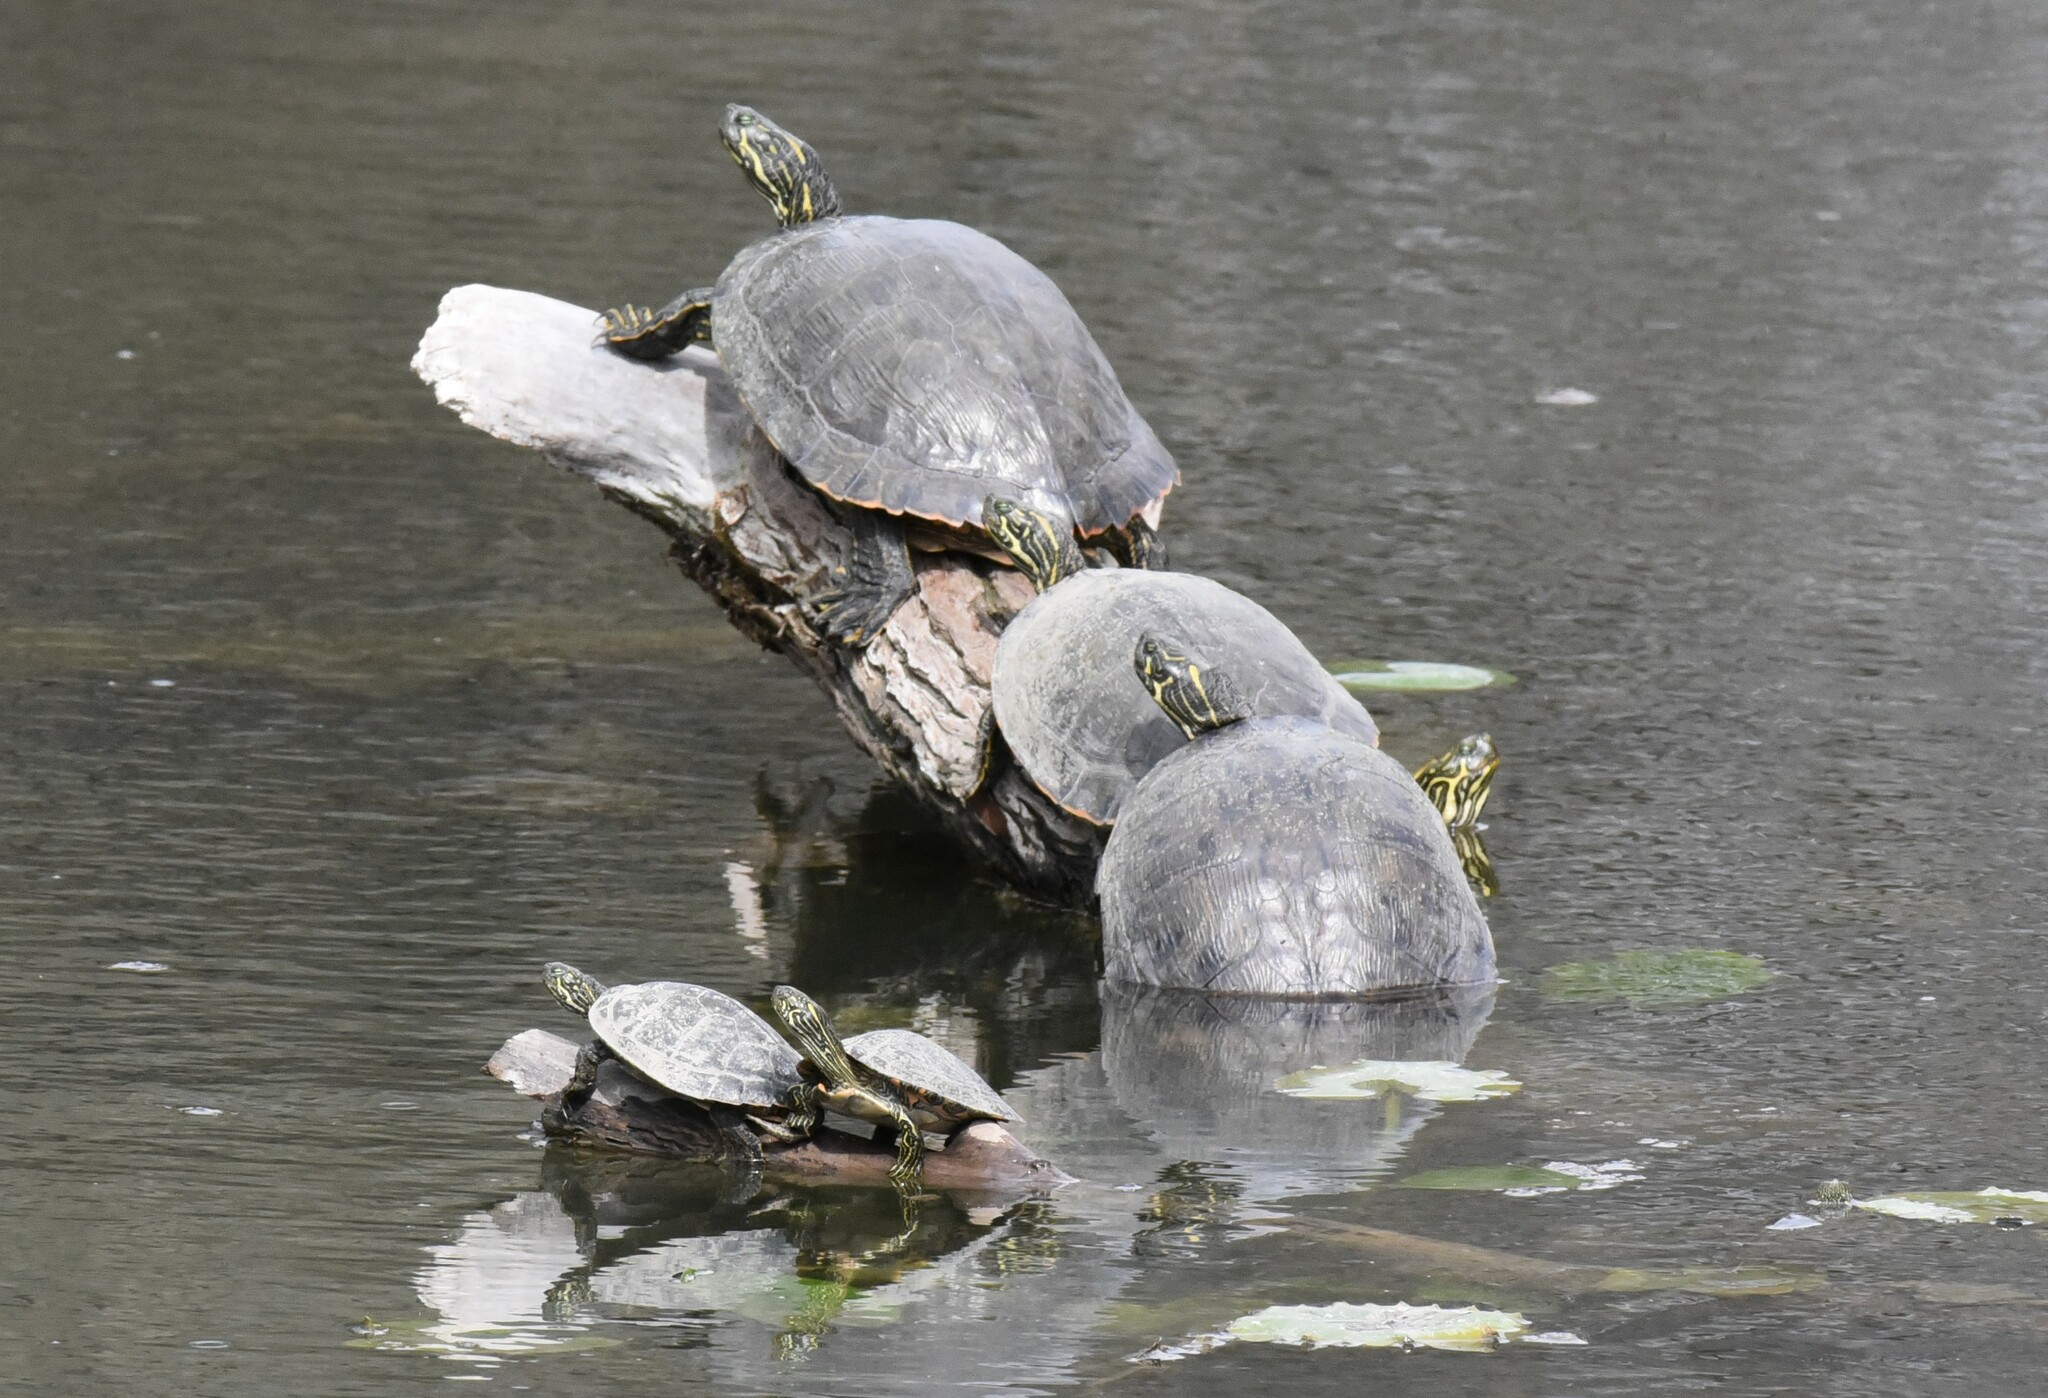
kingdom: Animalia
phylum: Chordata
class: Testudines
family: Emydidae
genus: Pseudemys
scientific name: Pseudemys texana
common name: Texas river cooter
